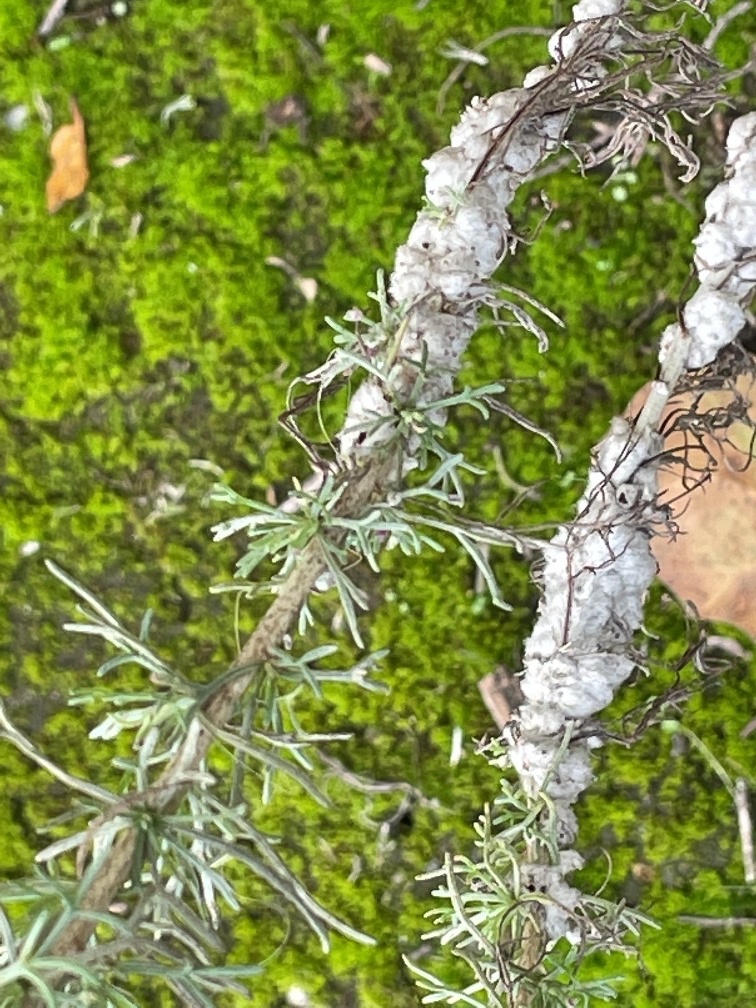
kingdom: Animalia
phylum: Arthropoda
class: Insecta
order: Diptera
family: Cecidomyiidae
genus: Rhopalomyia
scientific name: Rhopalomyia floccosa
